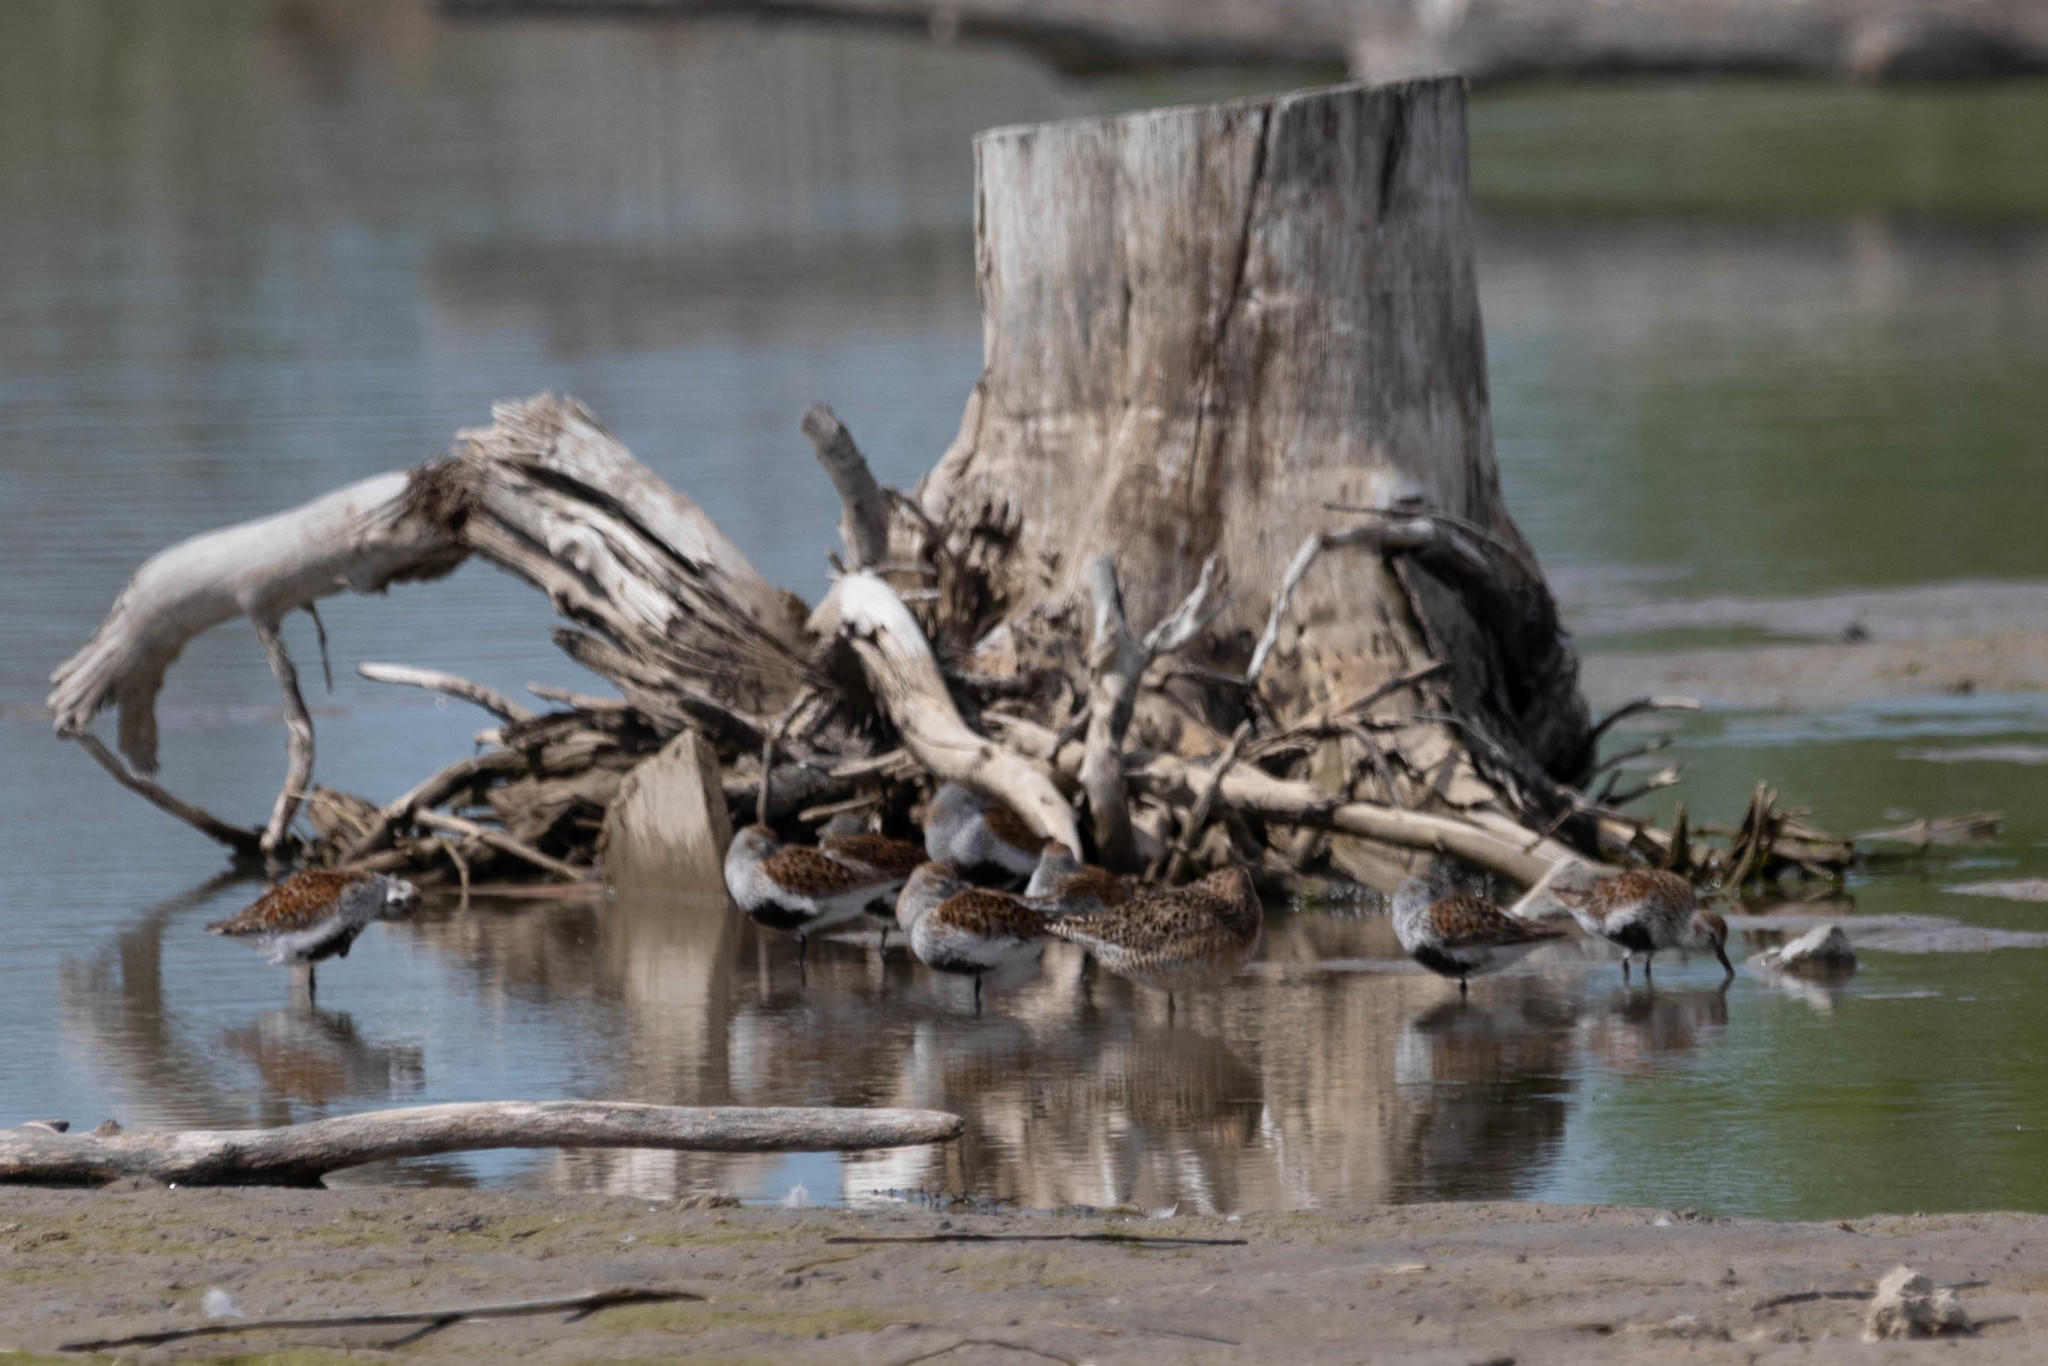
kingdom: Animalia
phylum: Chordata
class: Aves
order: Charadriiformes
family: Scolopacidae
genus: Calidris
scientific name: Calidris alpina
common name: Dunlin
